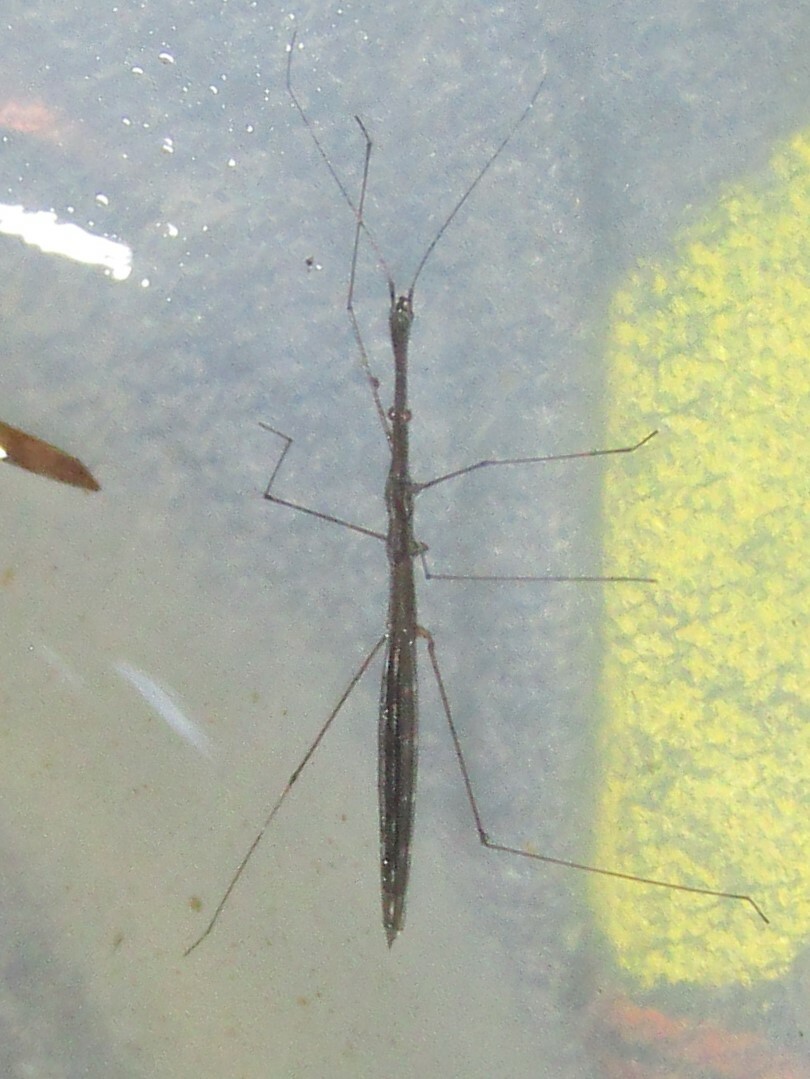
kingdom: Animalia
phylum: Arthropoda
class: Insecta
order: Hemiptera
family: Hydrometridae
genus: Hydrometra
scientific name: Hydrometra
